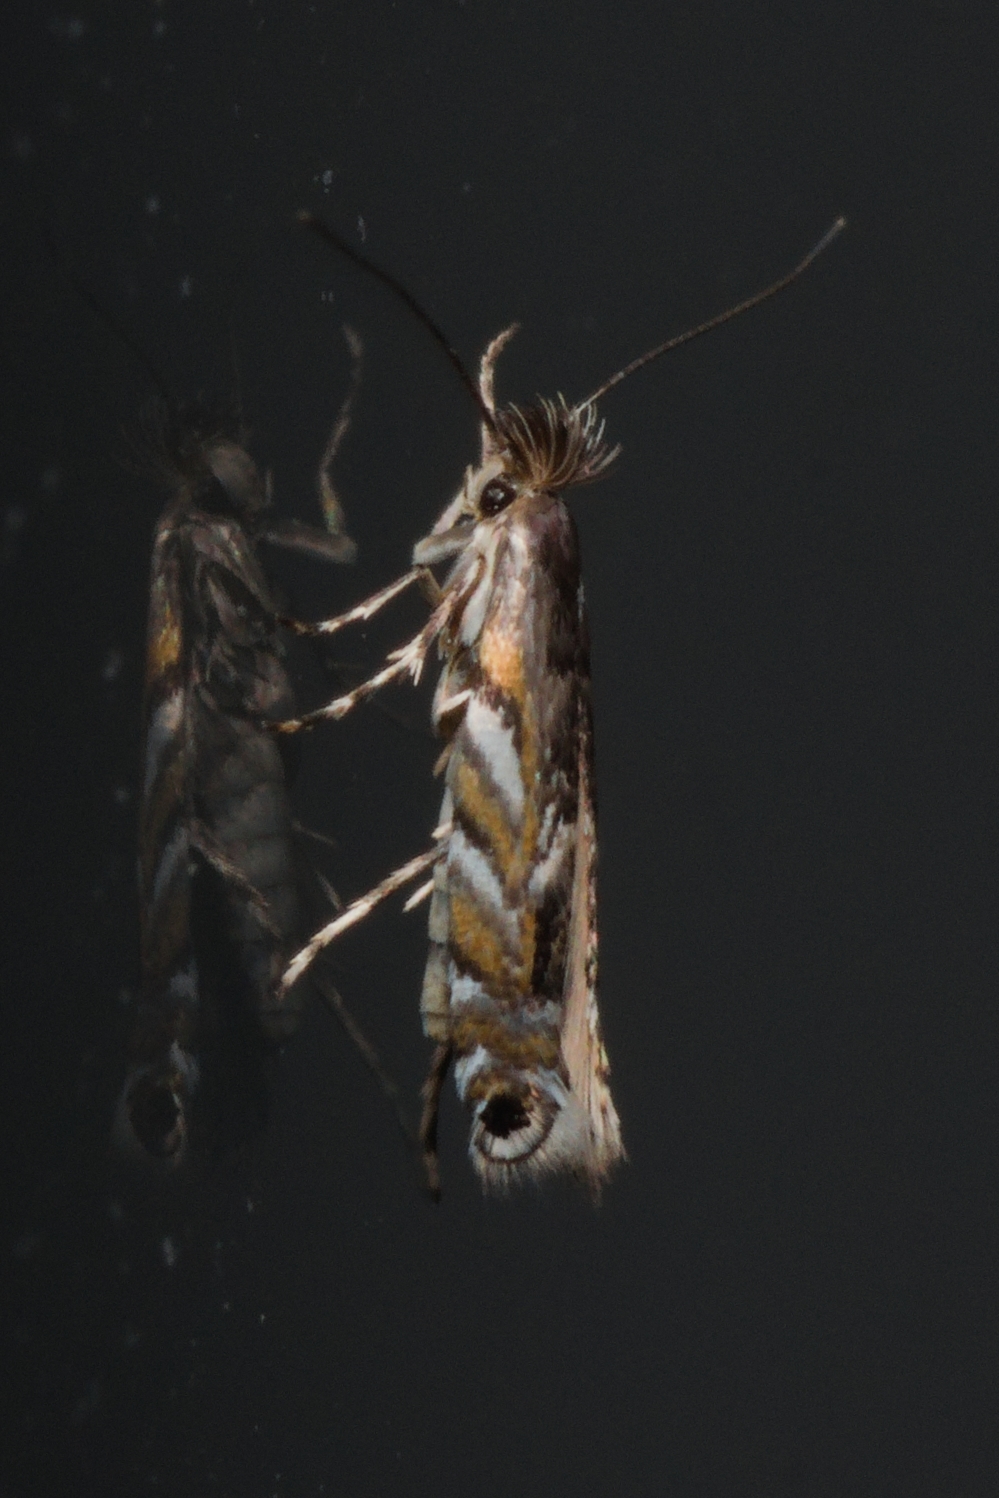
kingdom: Animalia
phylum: Arthropoda
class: Insecta
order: Lepidoptera
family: Gracillariidae
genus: Macrosaccus
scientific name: Macrosaccus robiniella
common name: Leaf blotch miner moth
